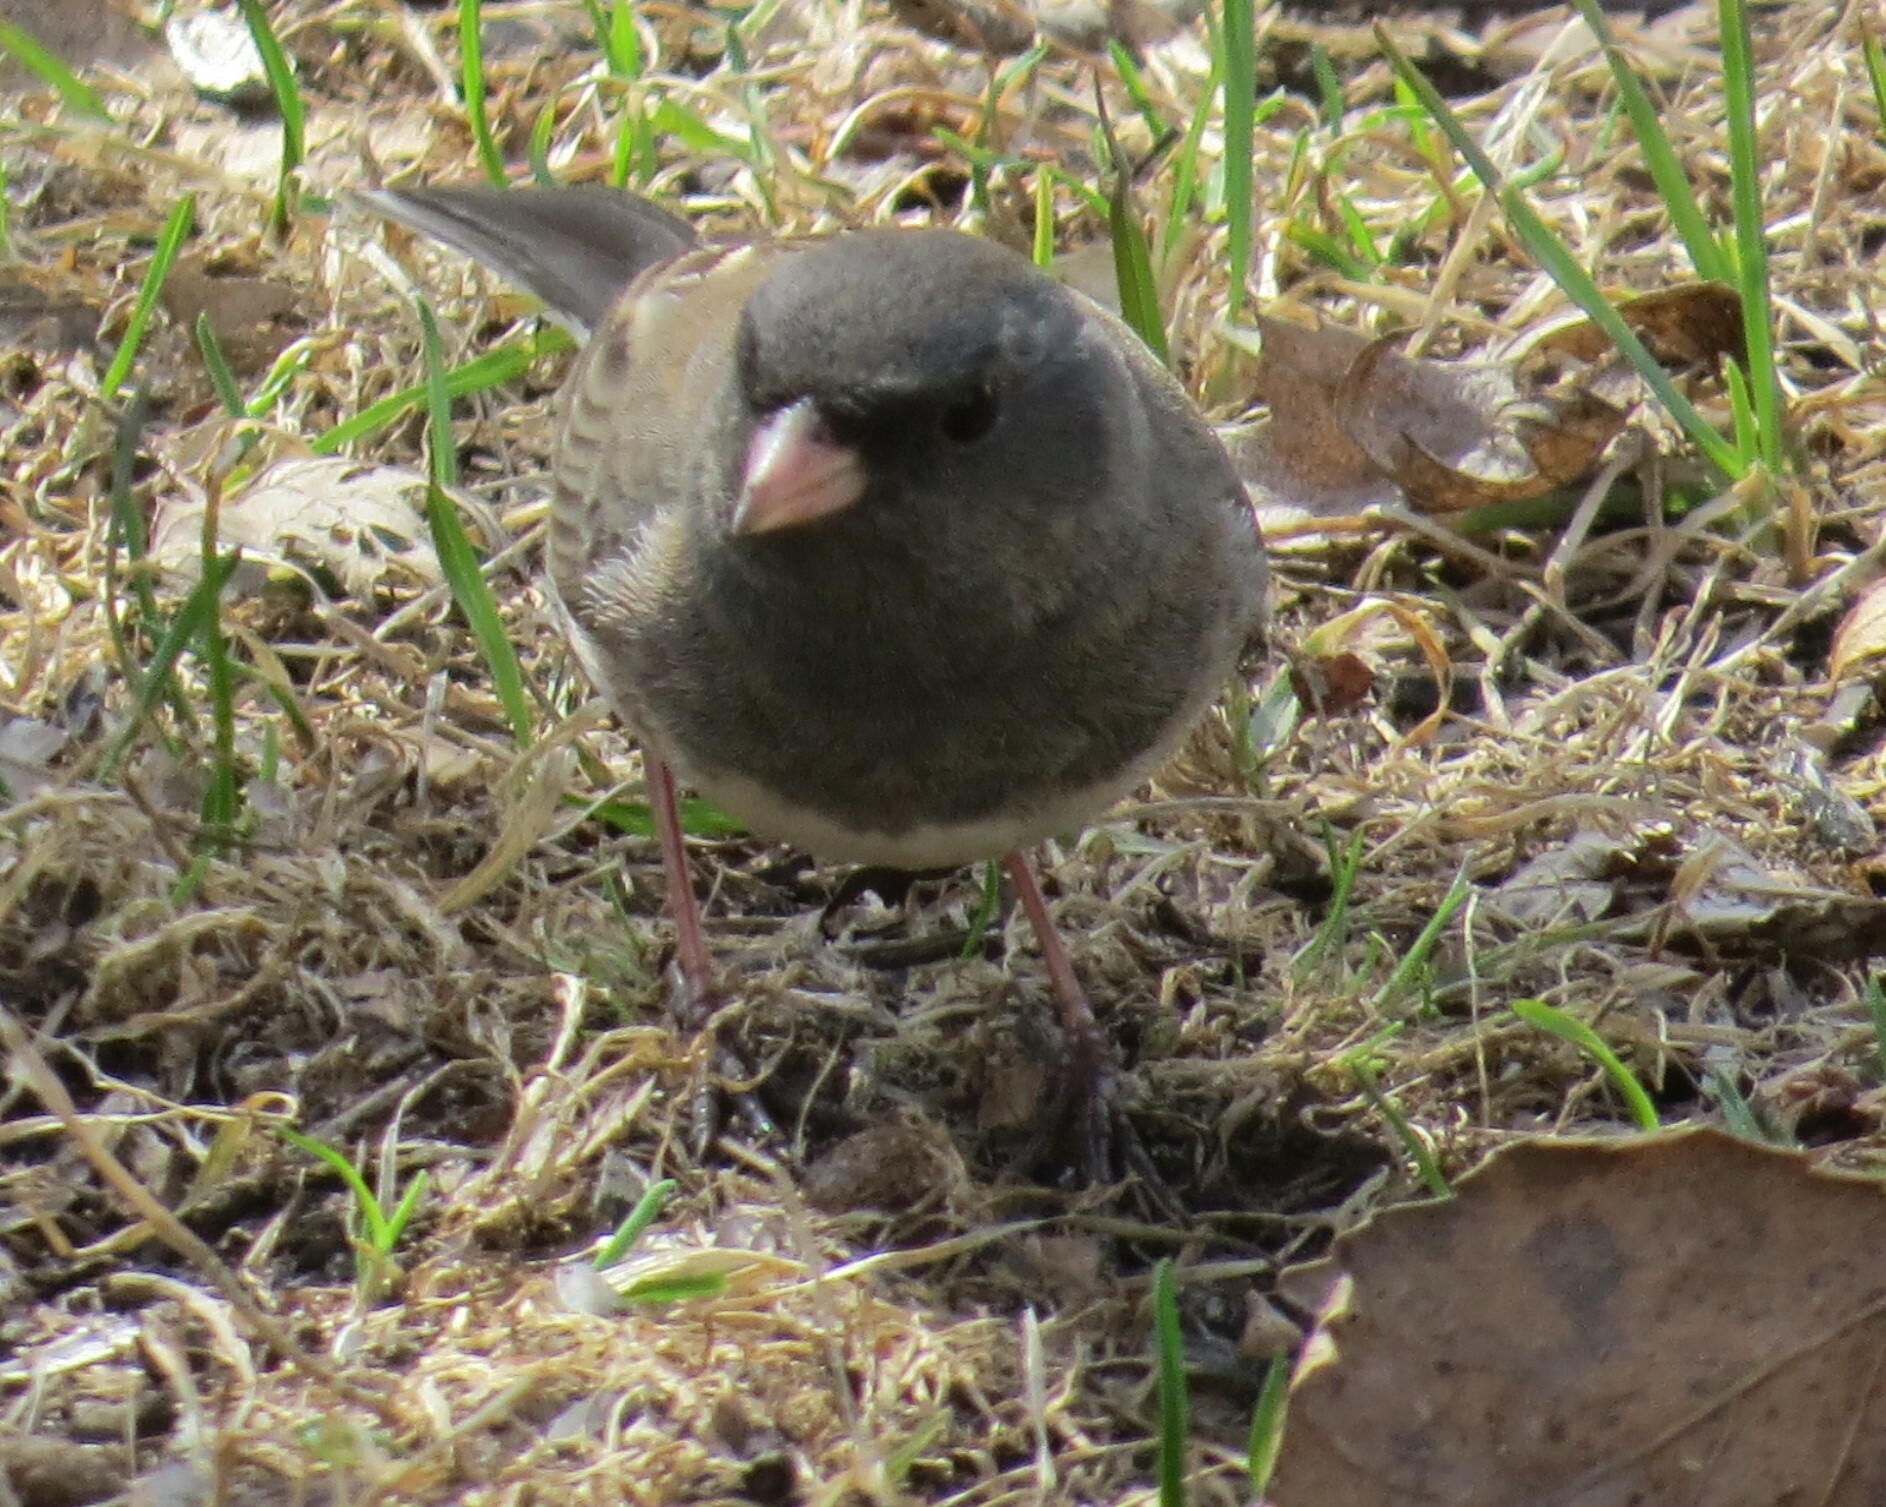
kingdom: Animalia
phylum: Chordata
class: Aves
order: Passeriformes
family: Passerellidae
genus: Junco
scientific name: Junco hyemalis
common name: Dark-eyed junco
